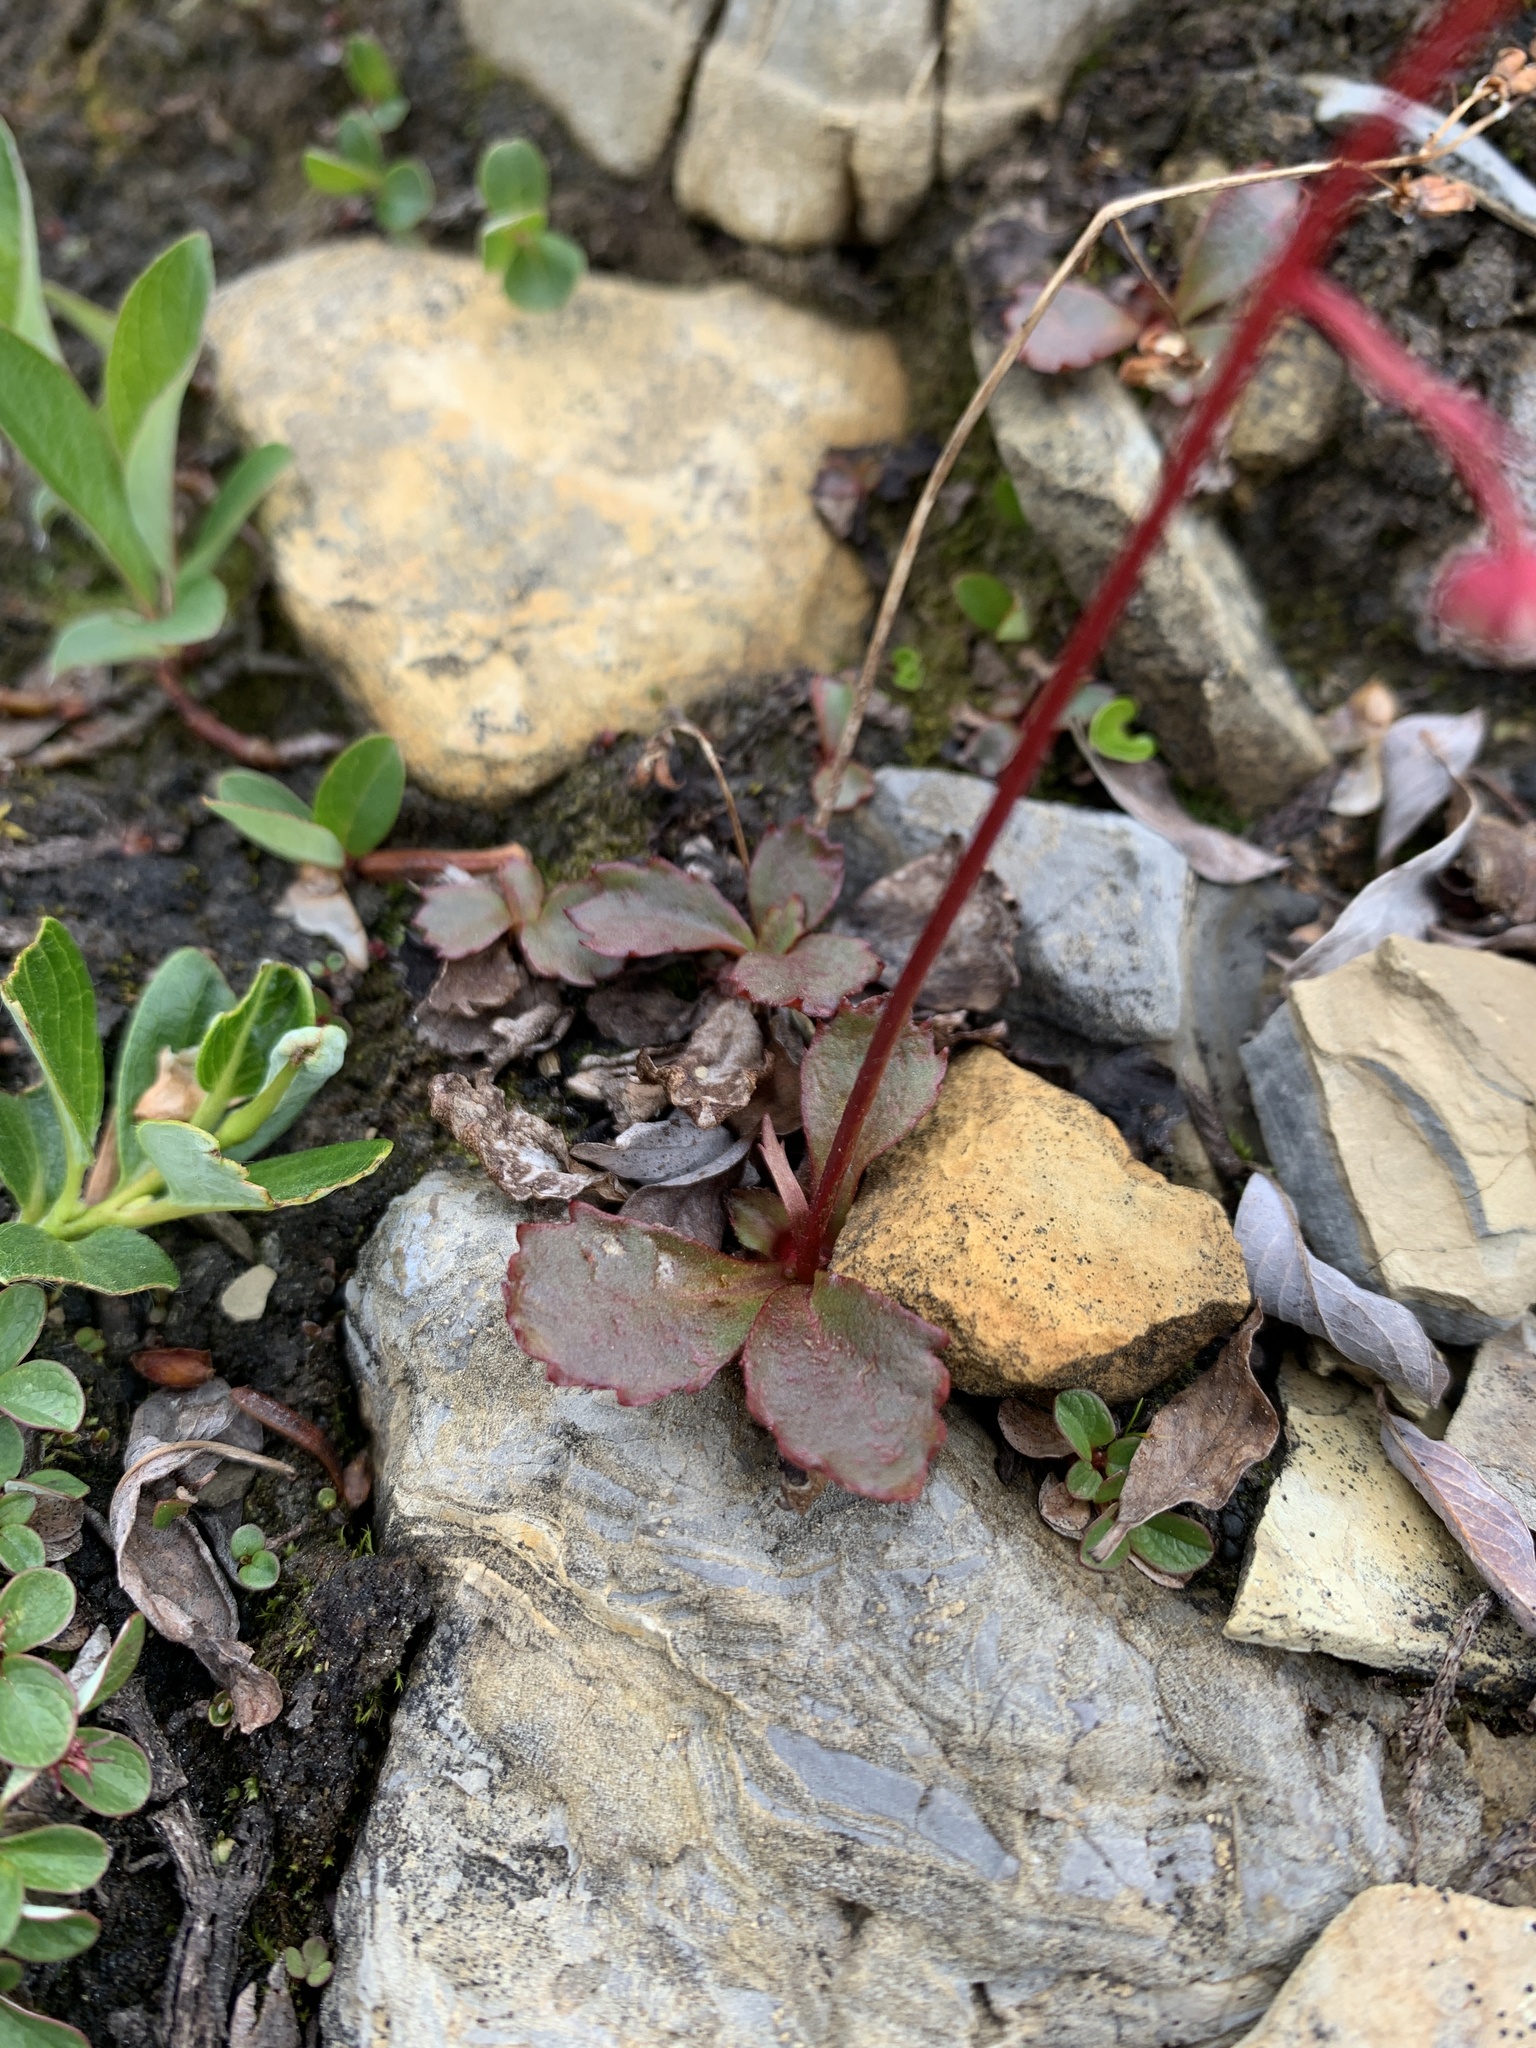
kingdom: Plantae
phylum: Tracheophyta
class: Magnoliopsida
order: Saxifragales
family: Saxifragaceae
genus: Micranthes
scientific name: Micranthes lyallii
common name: Lyall's saxifrage
